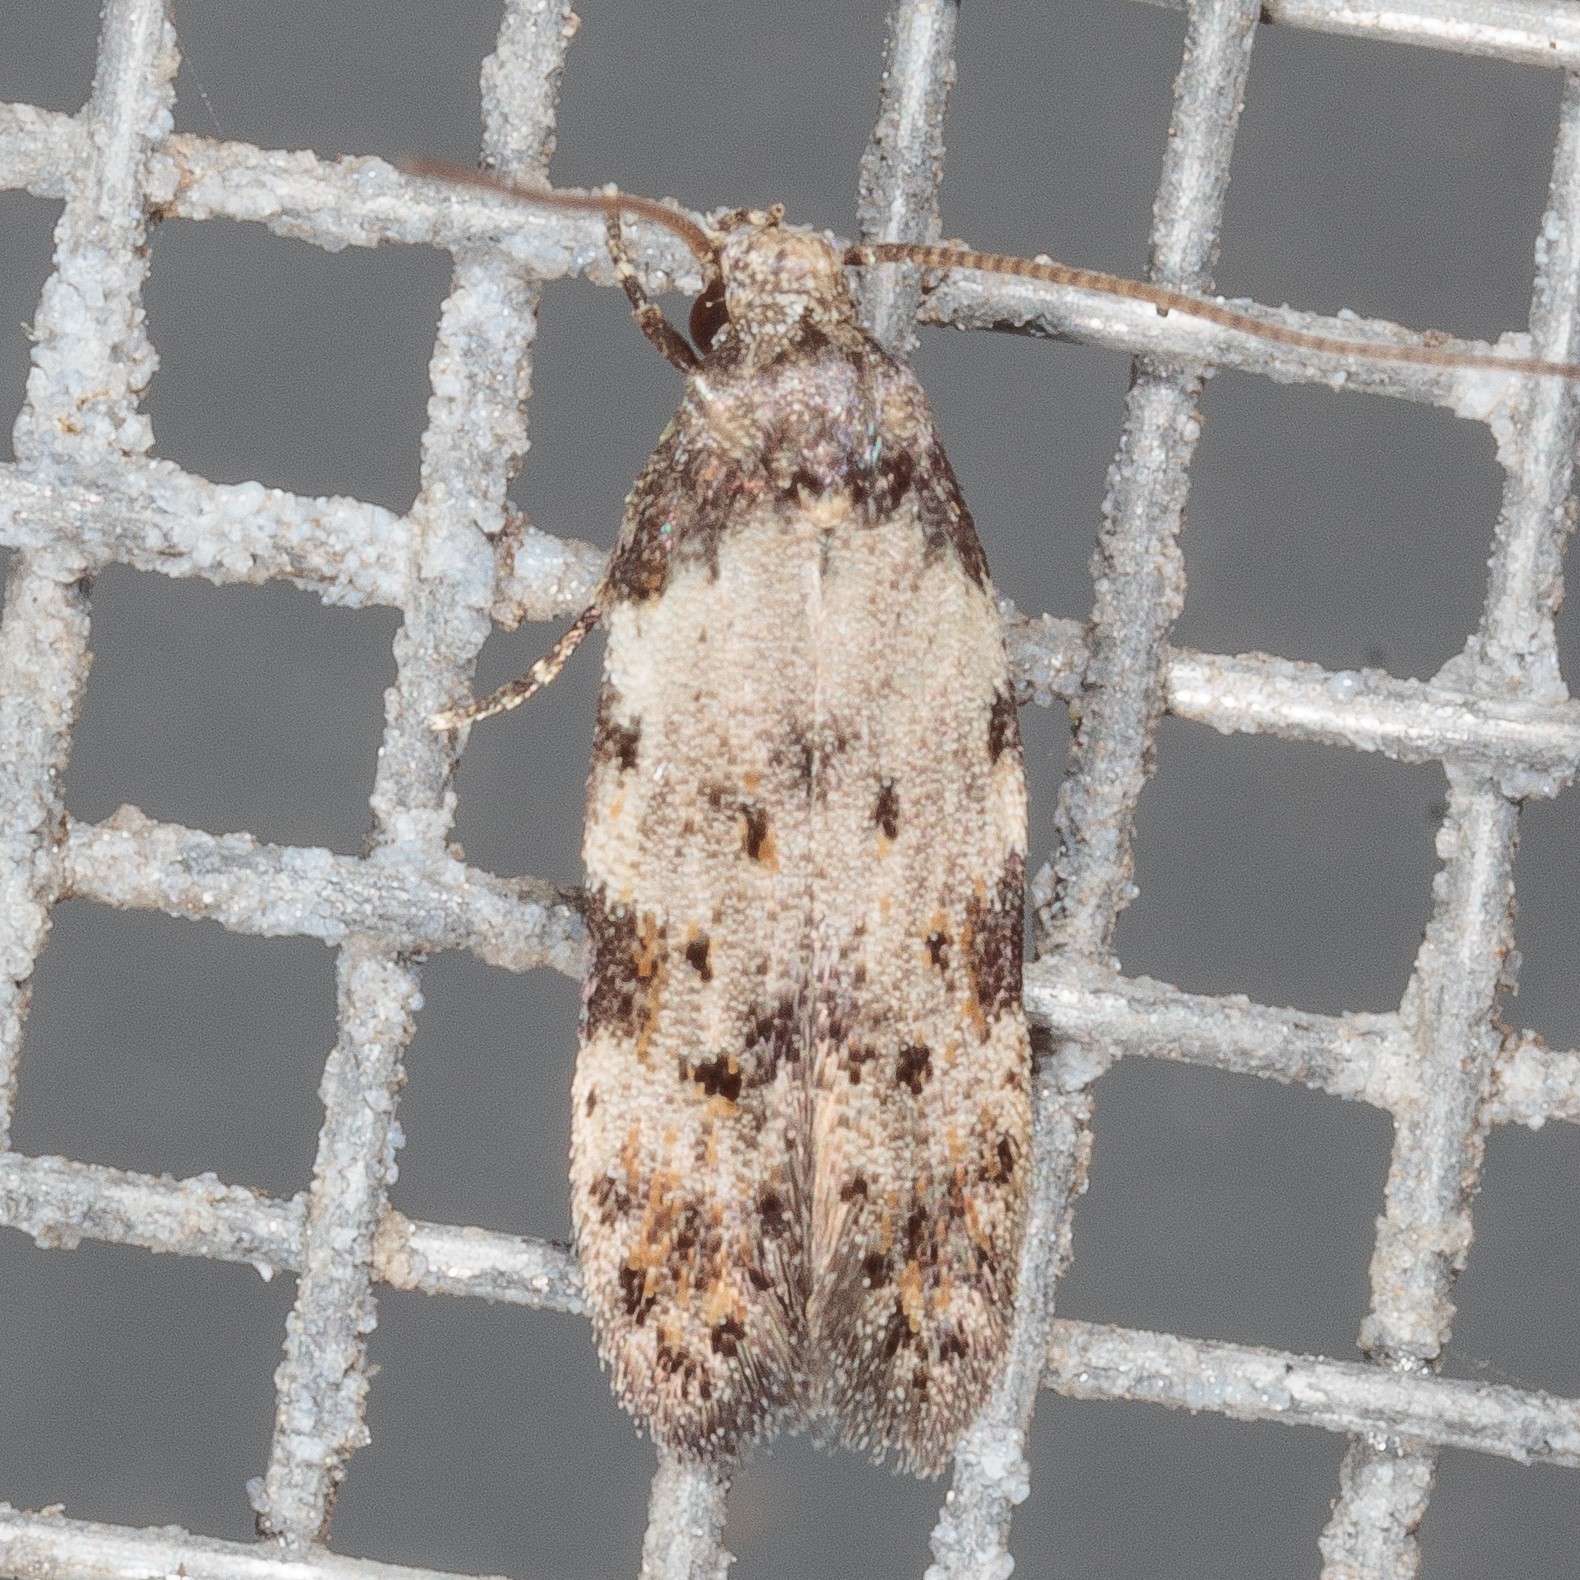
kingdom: Animalia
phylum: Arthropoda
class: Insecta
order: Lepidoptera
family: Autostichidae
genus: Taygete
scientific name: Taygete attributella
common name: Triangle-marked twirler moth
